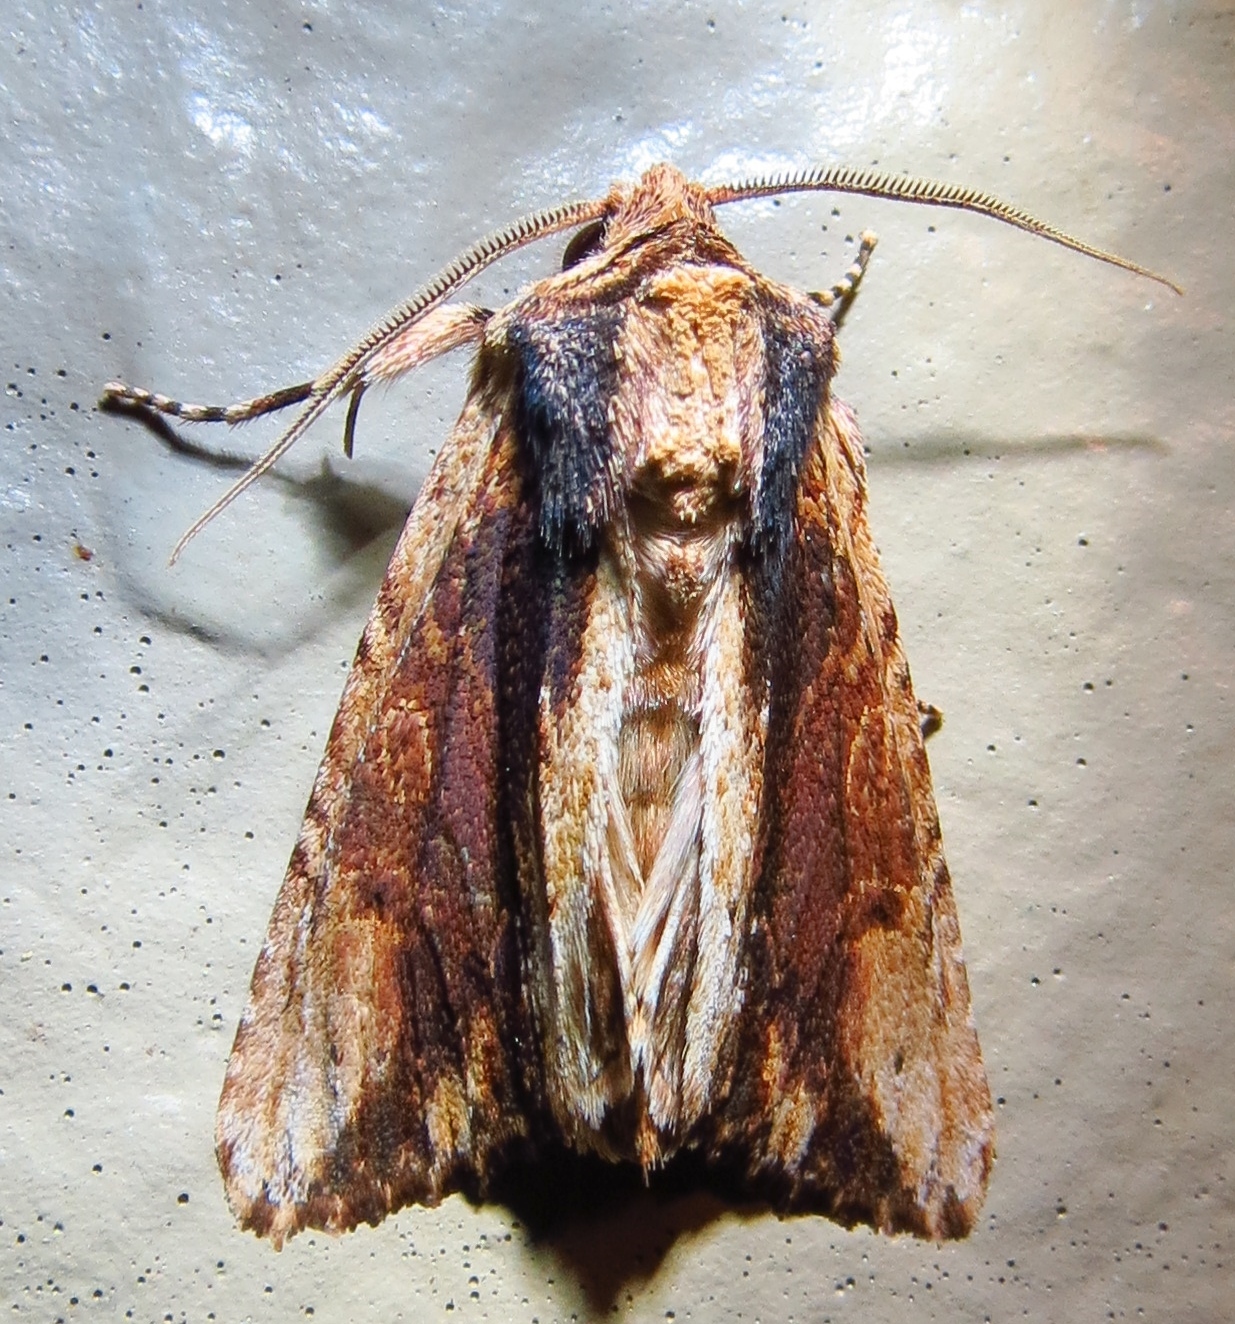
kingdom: Animalia
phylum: Arthropoda
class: Insecta
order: Lepidoptera
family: Noctuidae
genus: Achatia
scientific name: Achatia mucens
